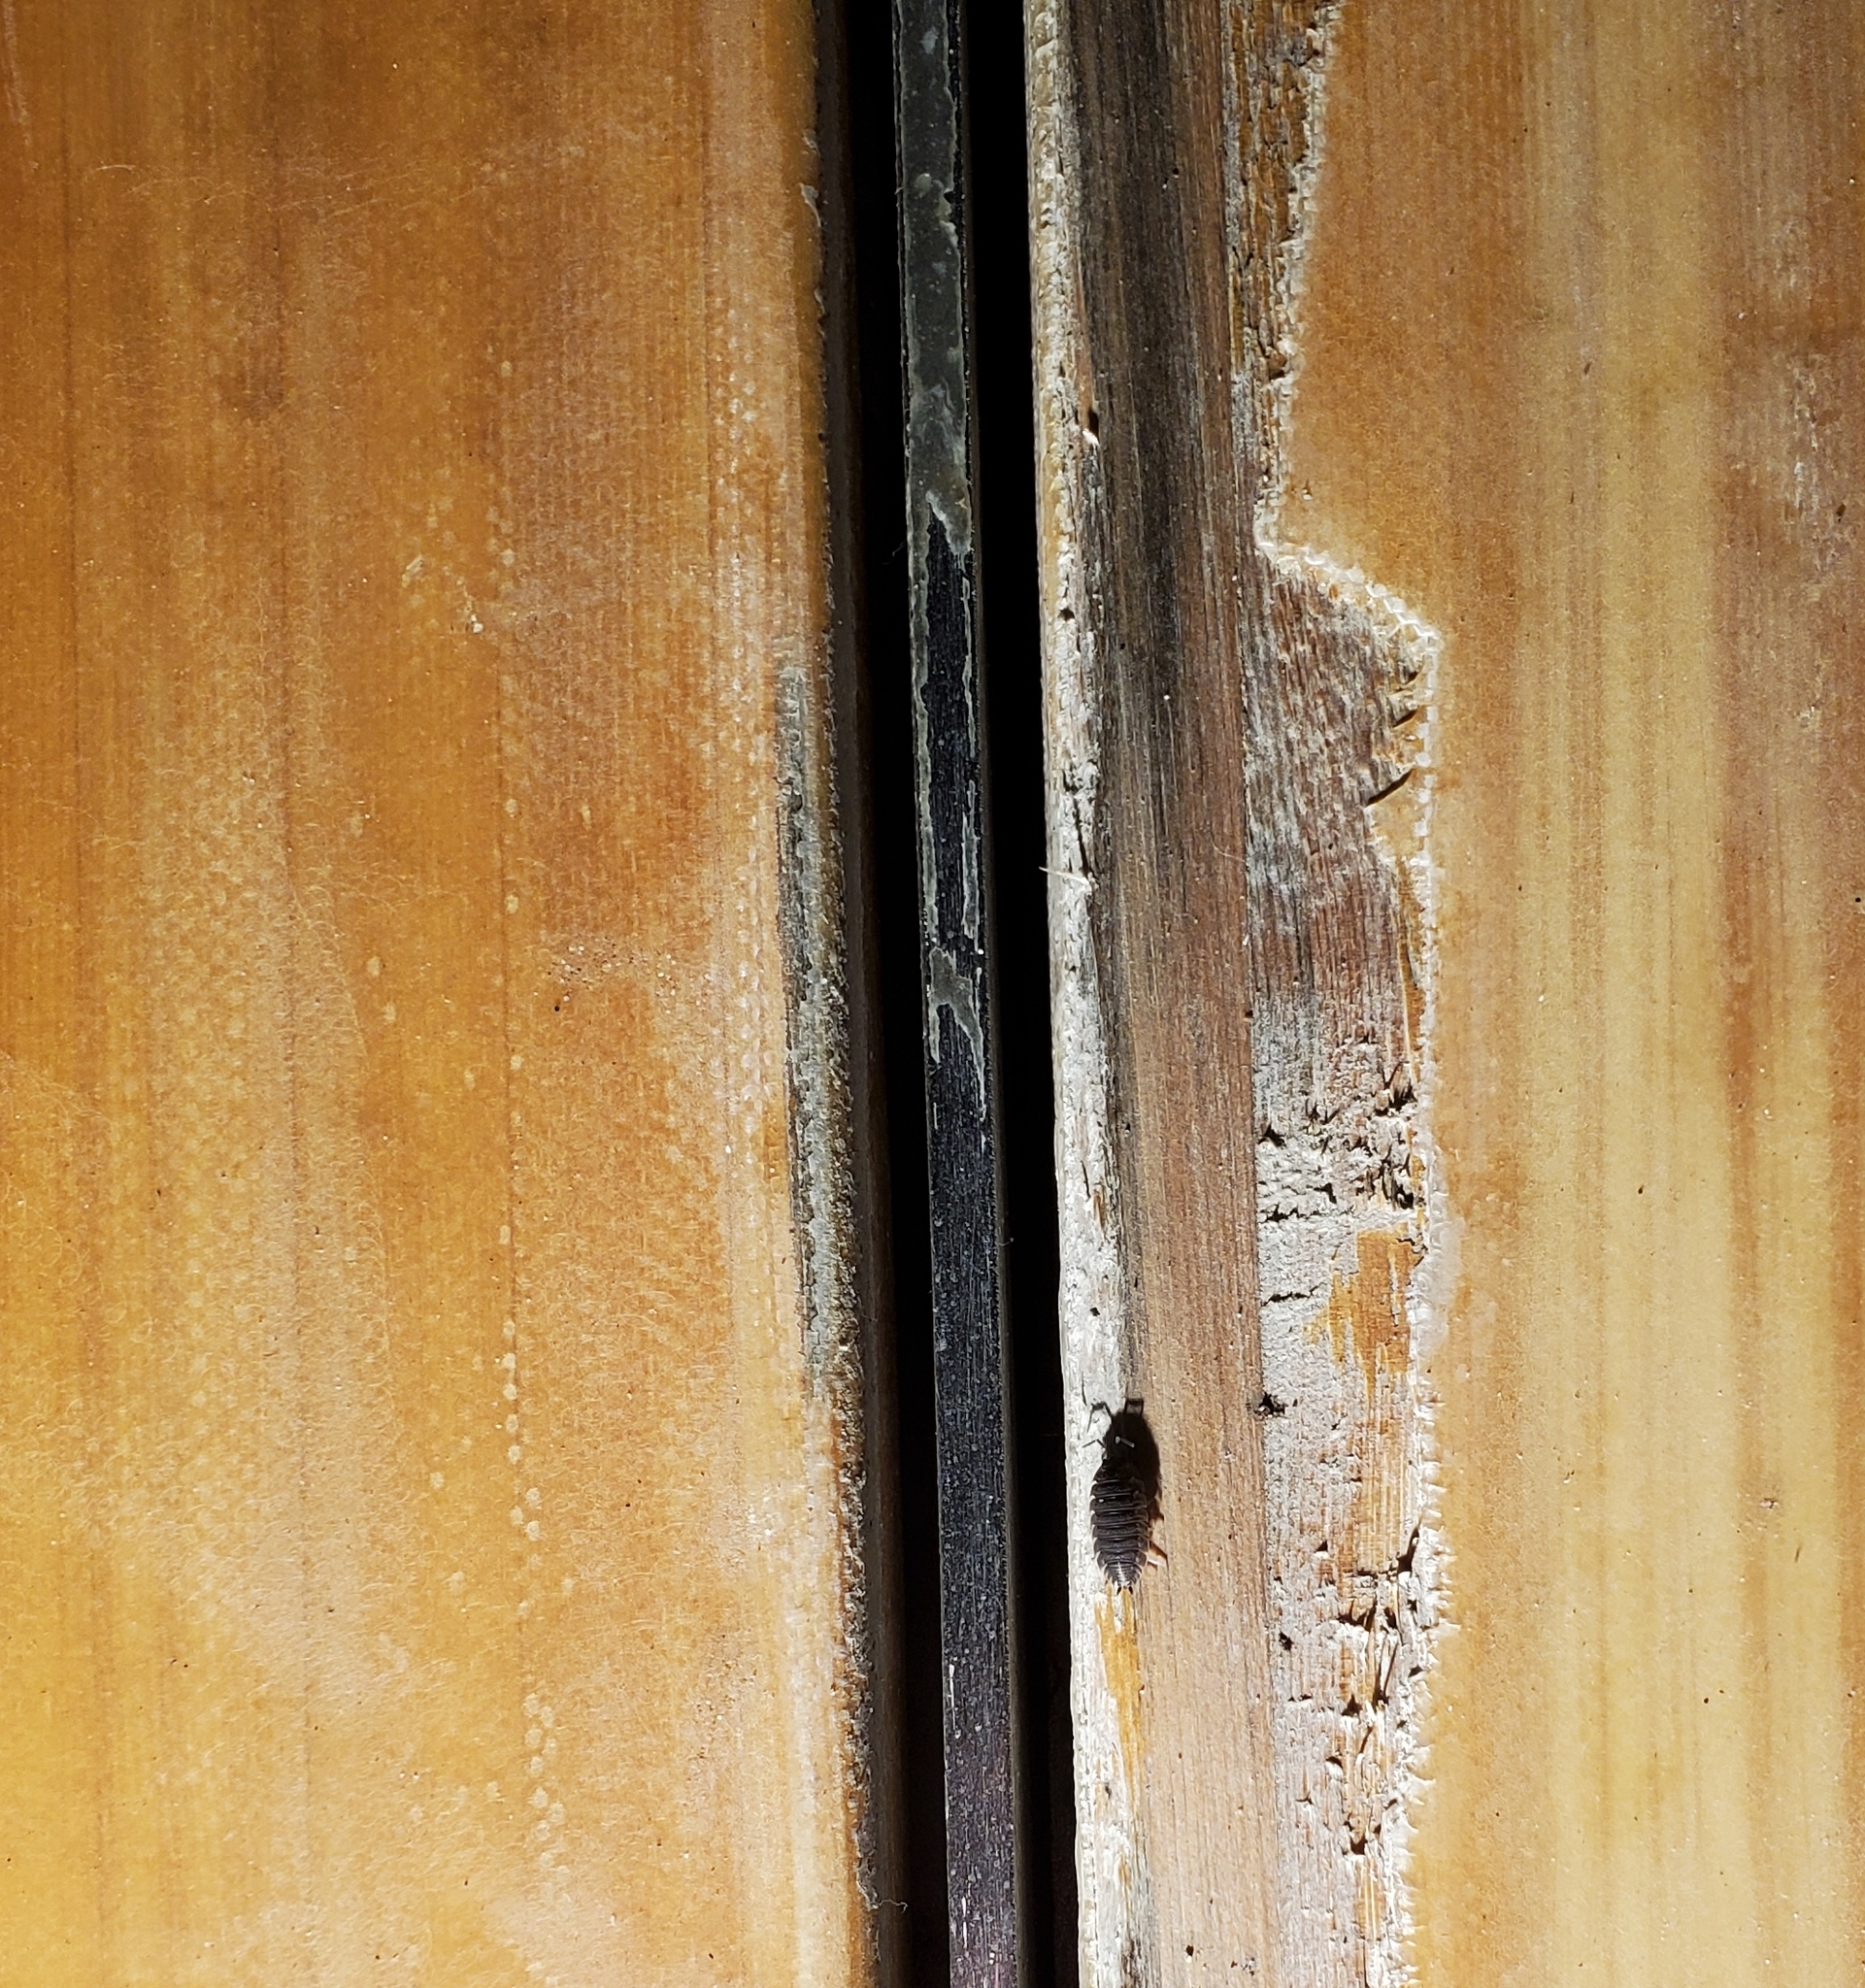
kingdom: Animalia
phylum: Arthropoda
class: Malacostraca
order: Isopoda
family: Porcellionidae
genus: Porcellio
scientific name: Porcellio scaber
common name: Common rough woodlouse
